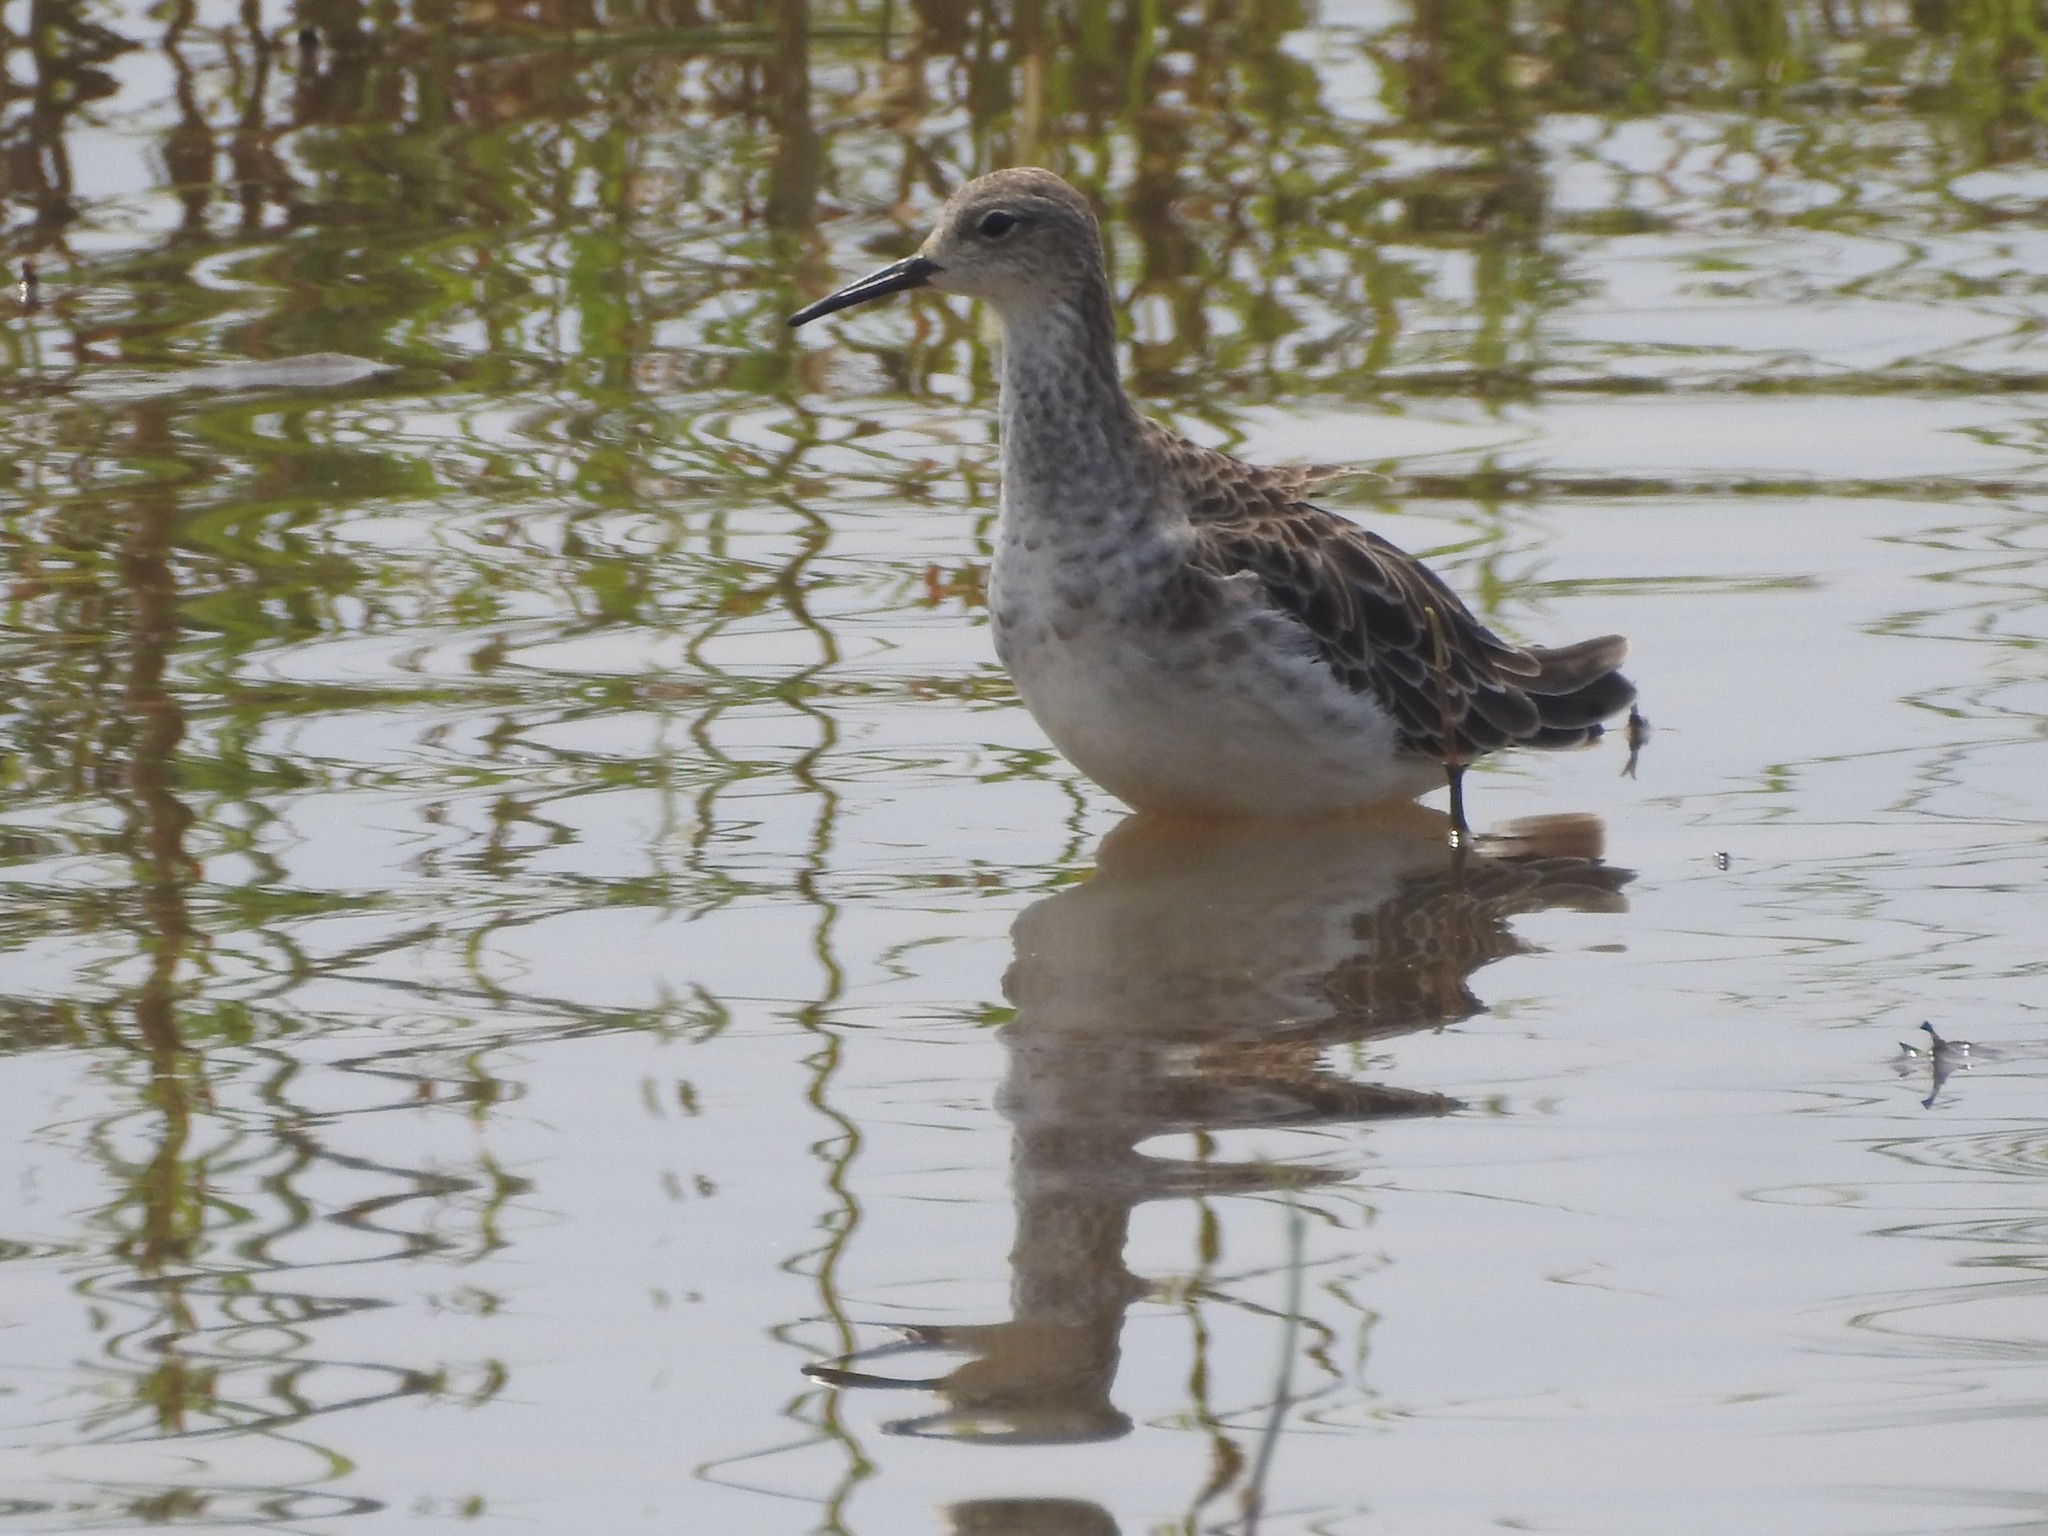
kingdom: Animalia
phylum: Chordata
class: Aves
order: Charadriiformes
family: Scolopacidae
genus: Calidris
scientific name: Calidris pugnax
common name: Ruff
